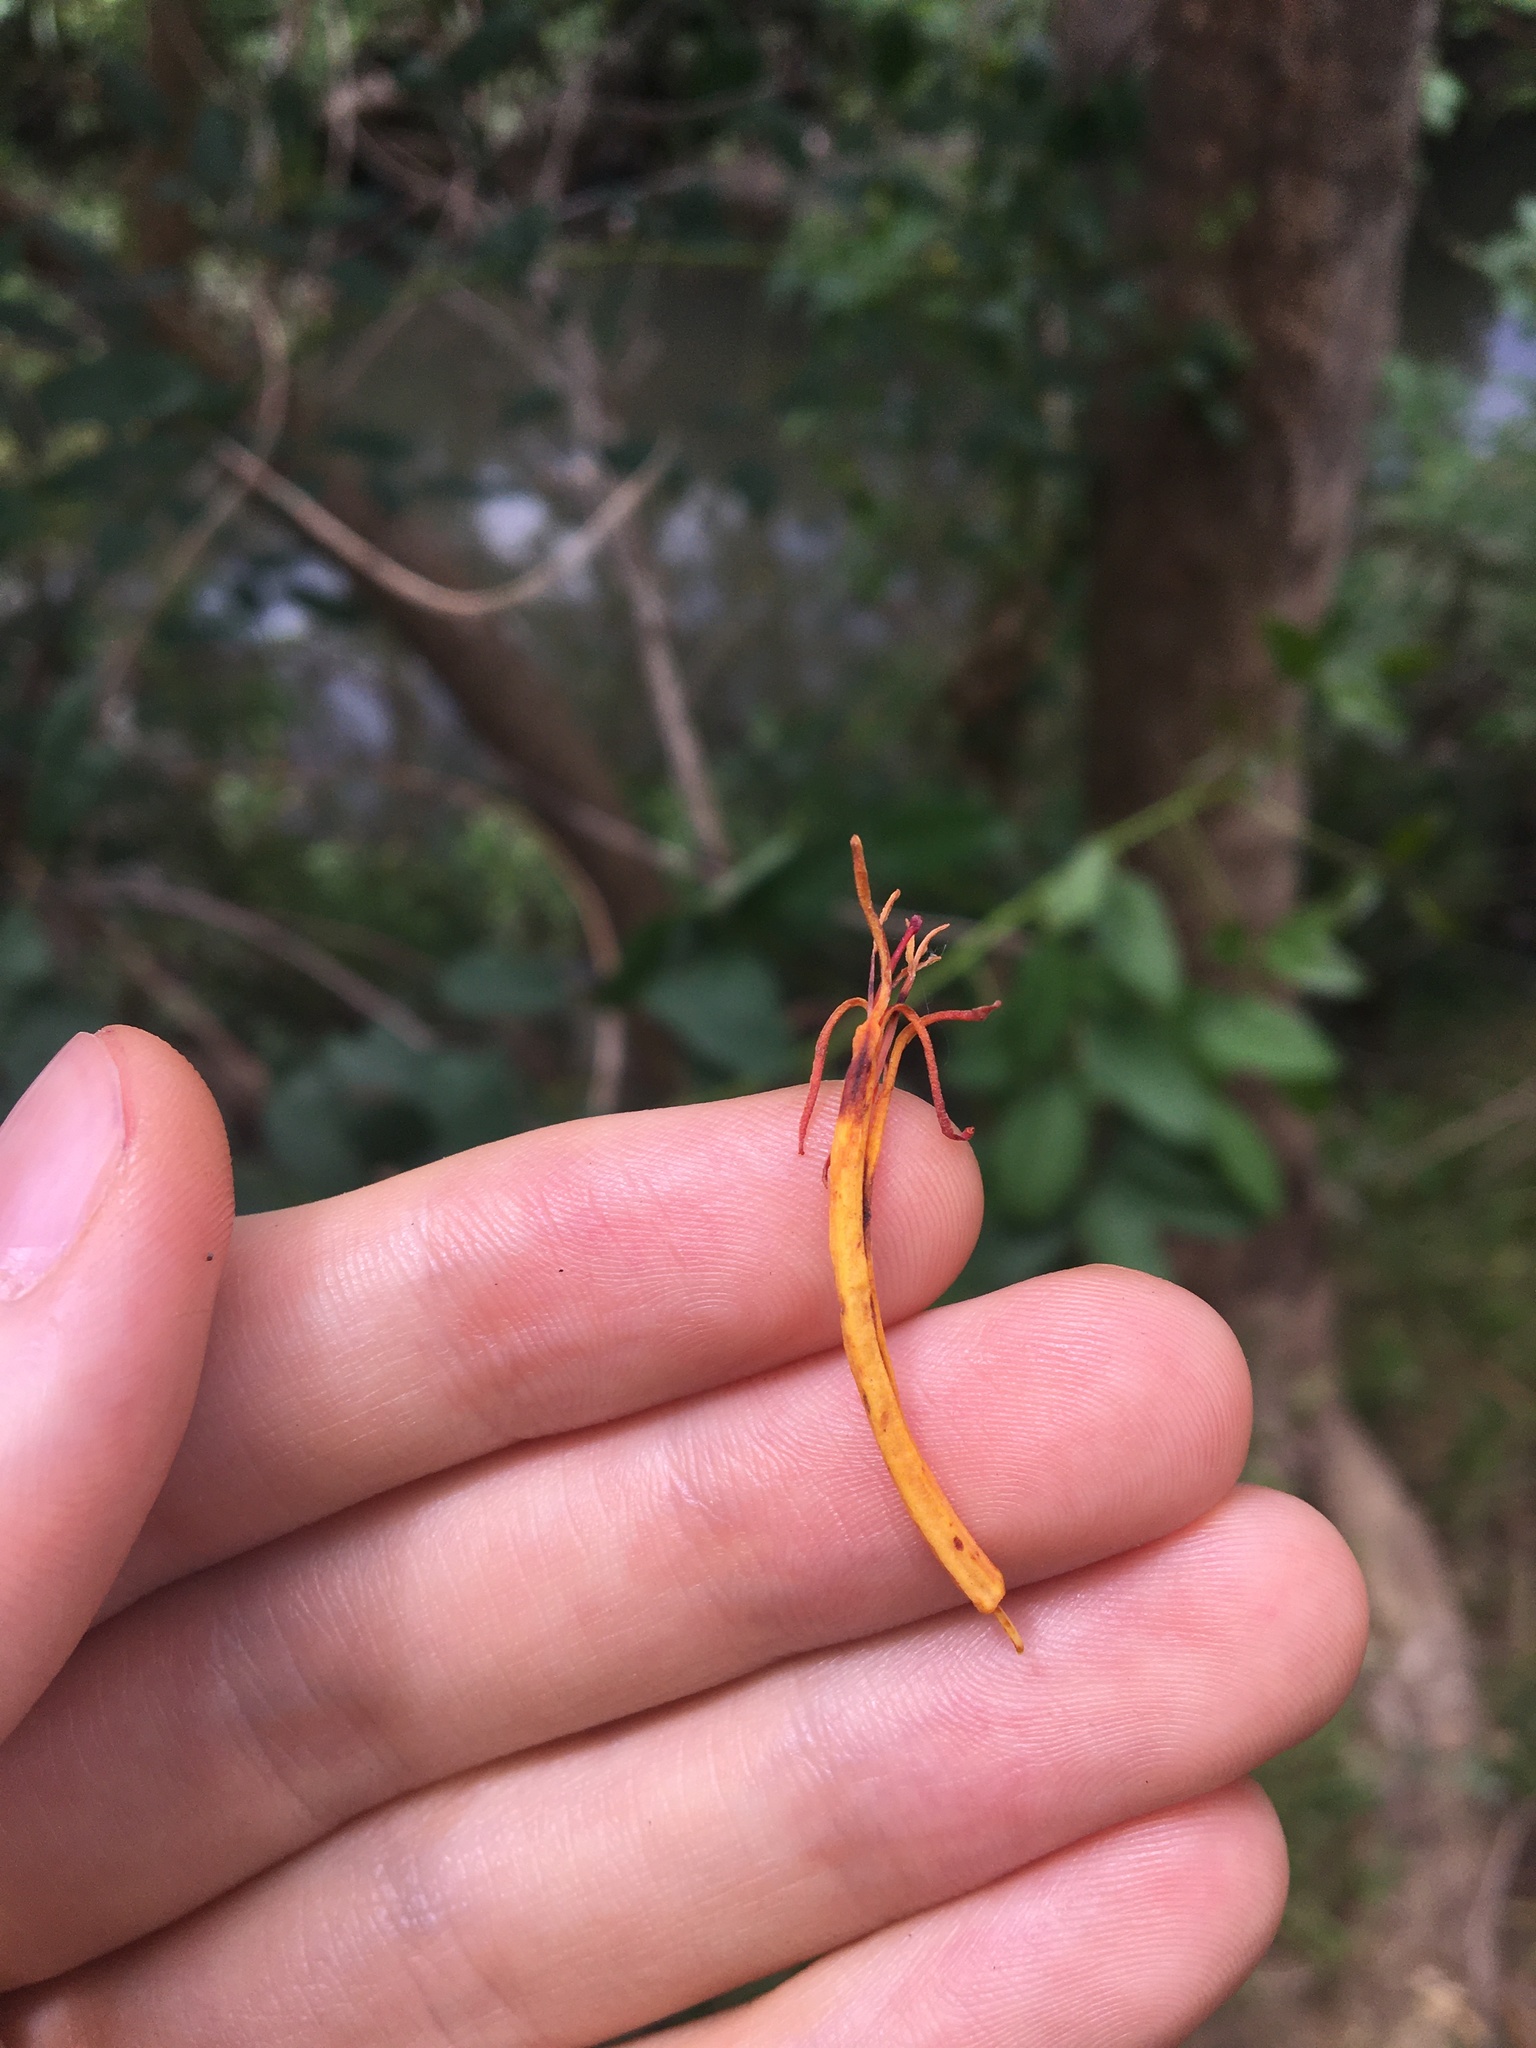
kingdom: Plantae
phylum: Tracheophyta
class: Magnoliopsida
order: Santalales
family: Loranthaceae
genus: Dendrophthoe
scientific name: Dendrophthoe vitellina
